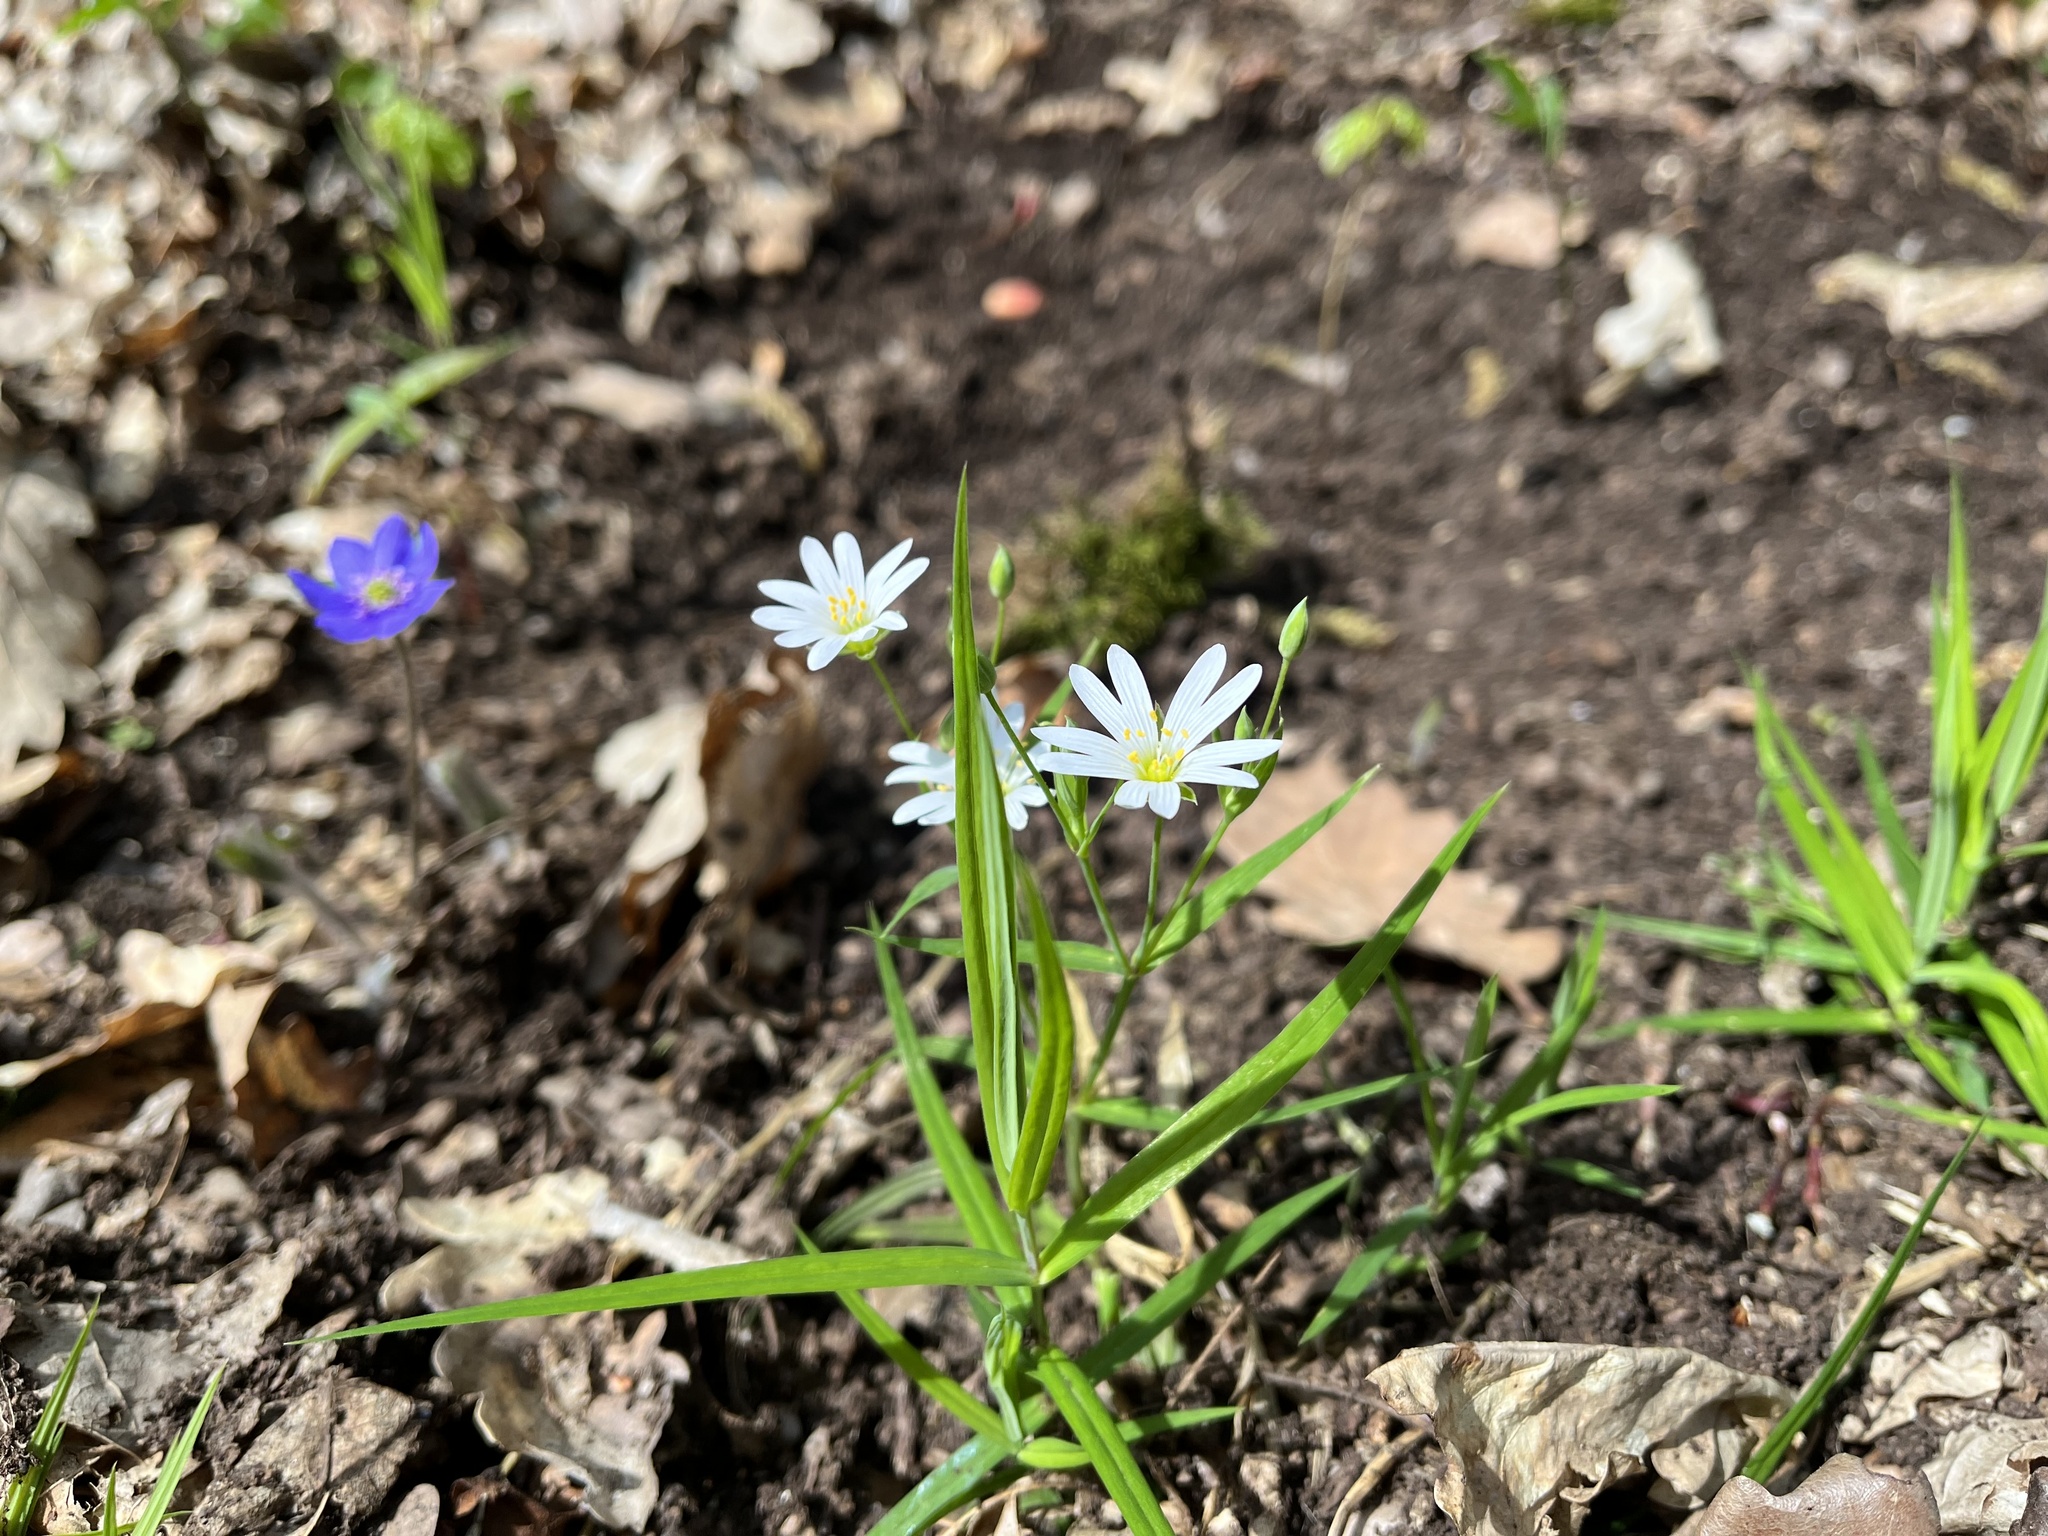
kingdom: Plantae
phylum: Tracheophyta
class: Magnoliopsida
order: Caryophyllales
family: Caryophyllaceae
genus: Rabelera
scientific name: Rabelera holostea
